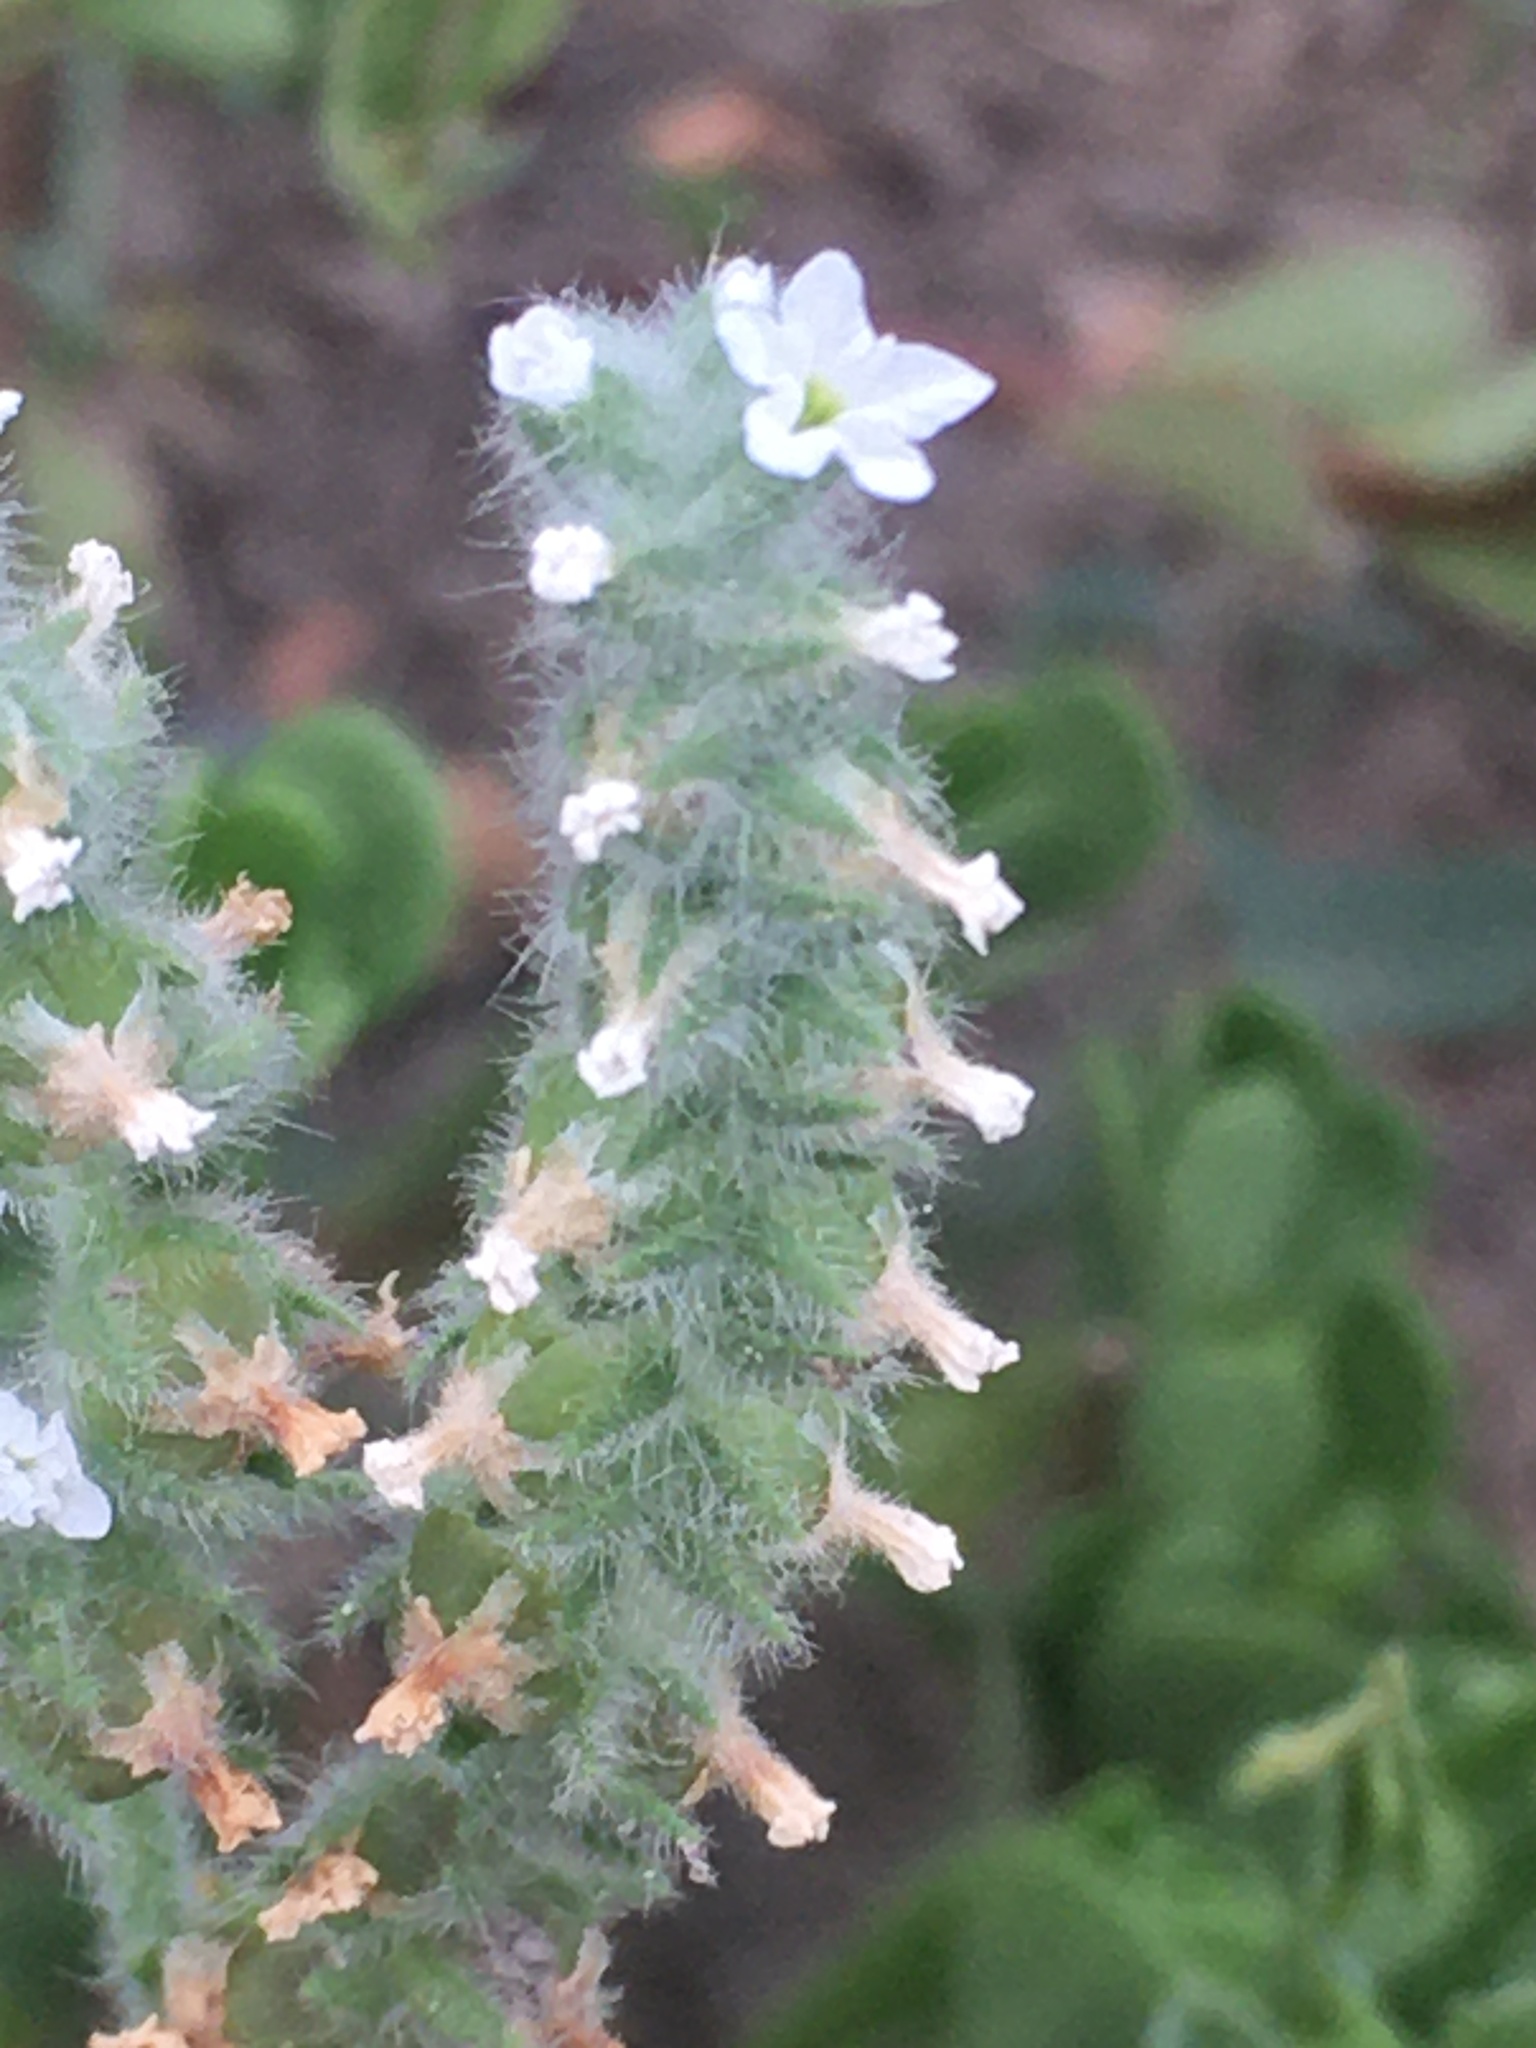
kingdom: Plantae
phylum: Tracheophyta
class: Magnoliopsida
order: Boraginales
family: Heliotropiaceae
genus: Heliotropium
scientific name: Heliotropium europaeum
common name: European heliotrope
